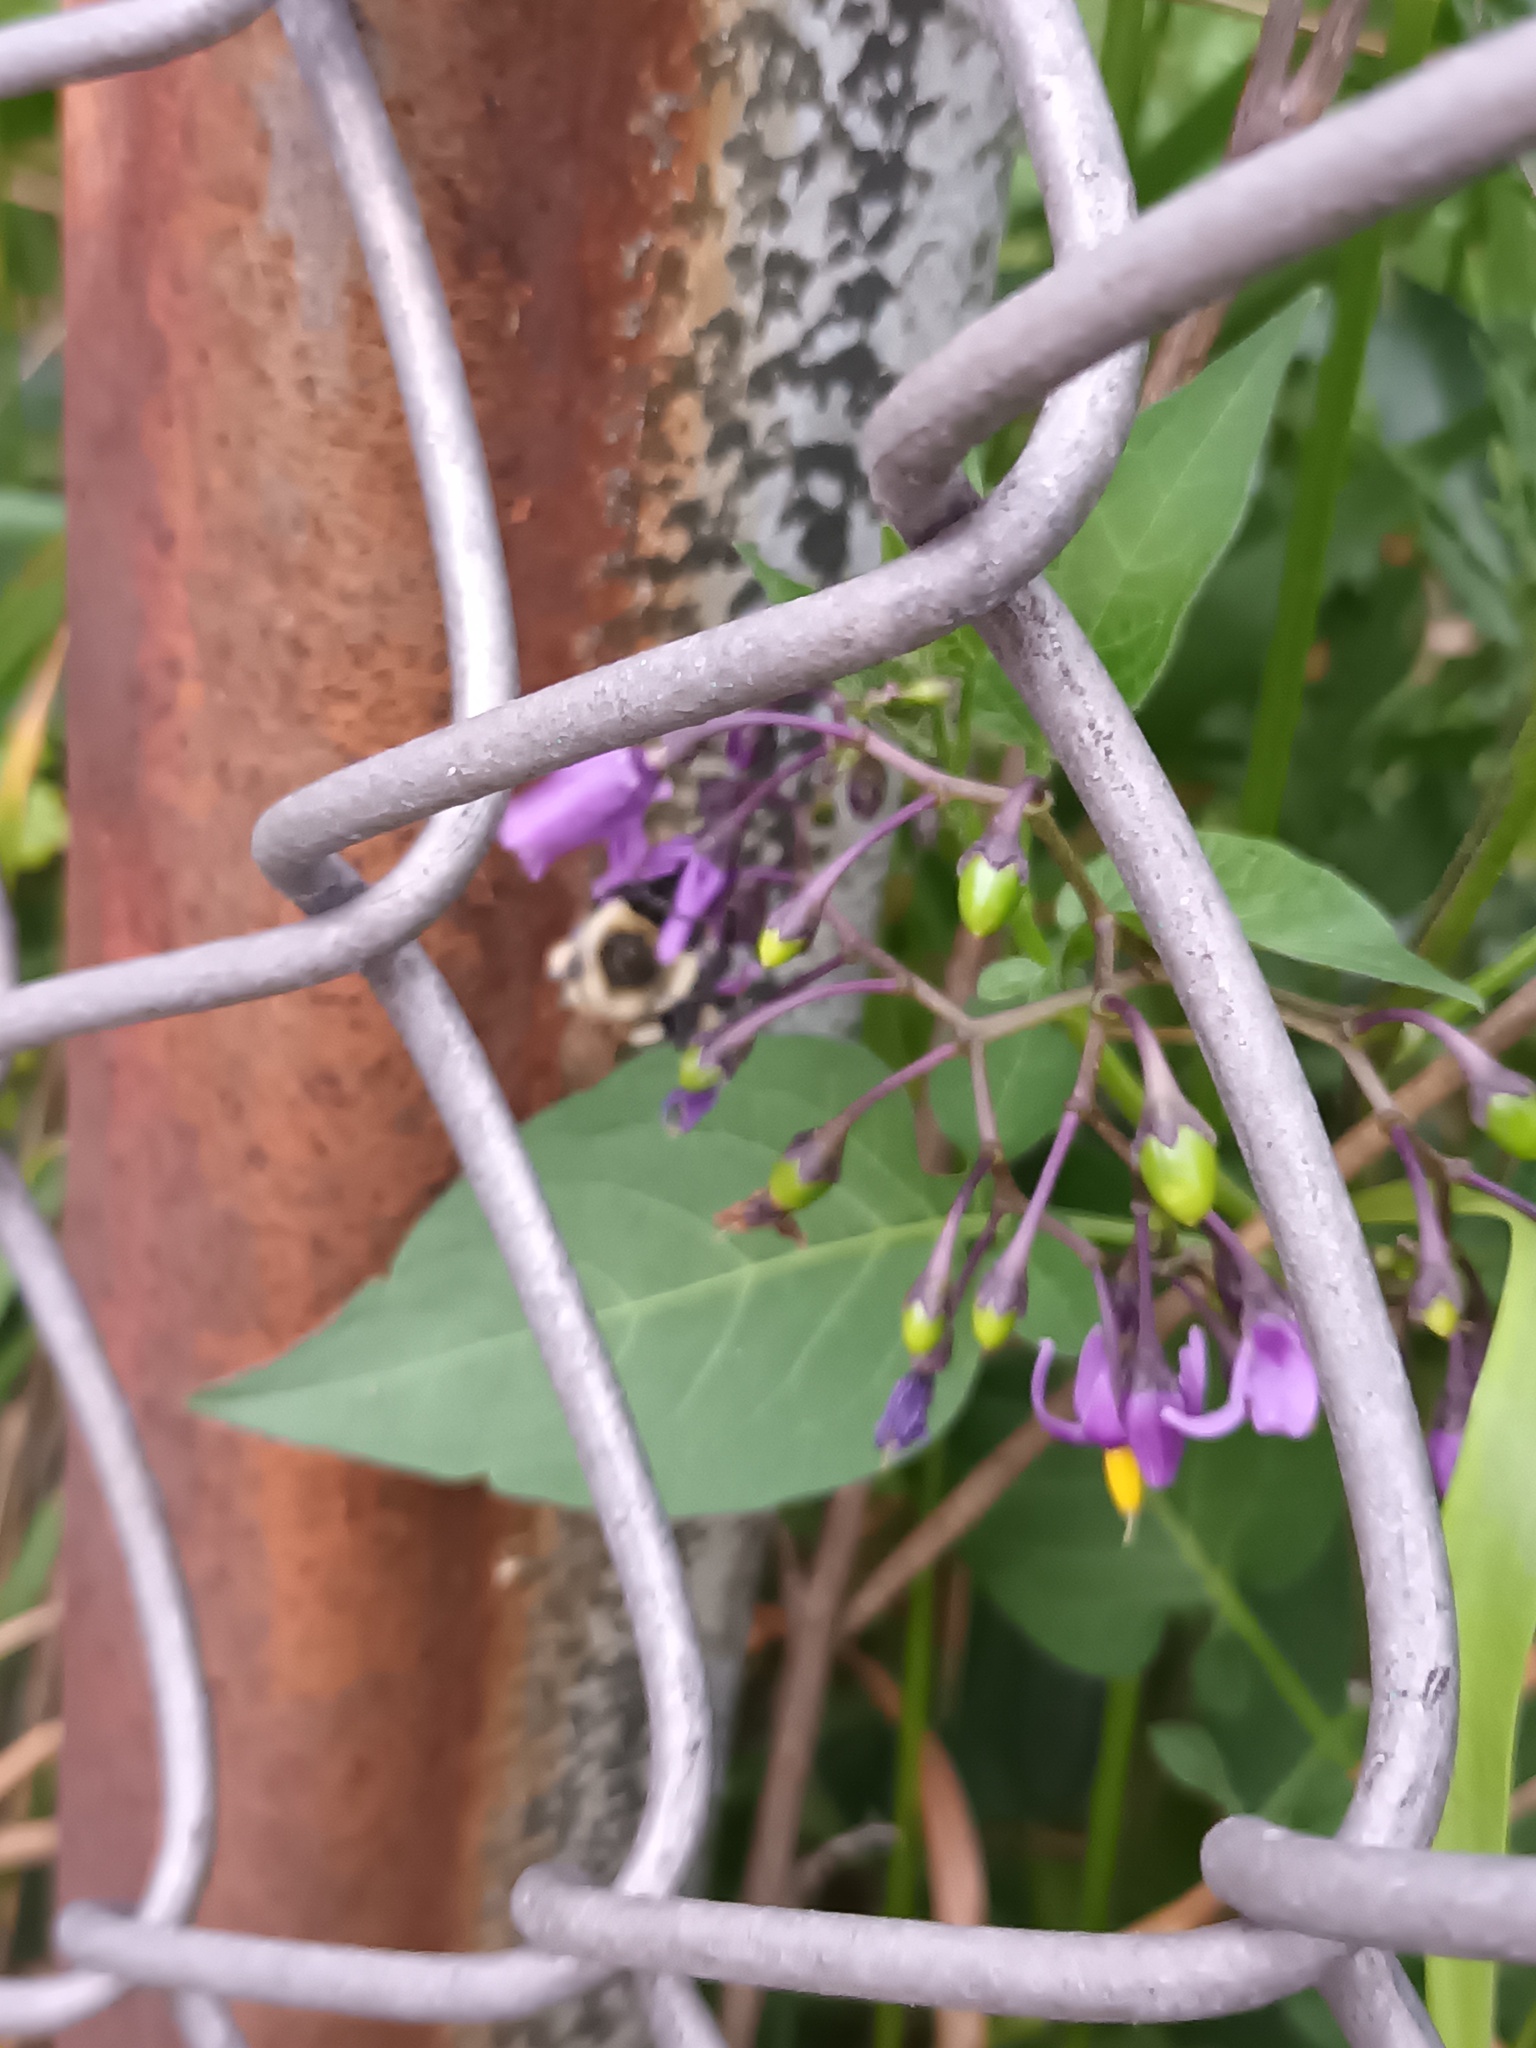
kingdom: Animalia
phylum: Arthropoda
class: Insecta
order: Hymenoptera
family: Apidae
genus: Bombus
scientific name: Bombus impatiens
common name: Common eastern bumble bee
